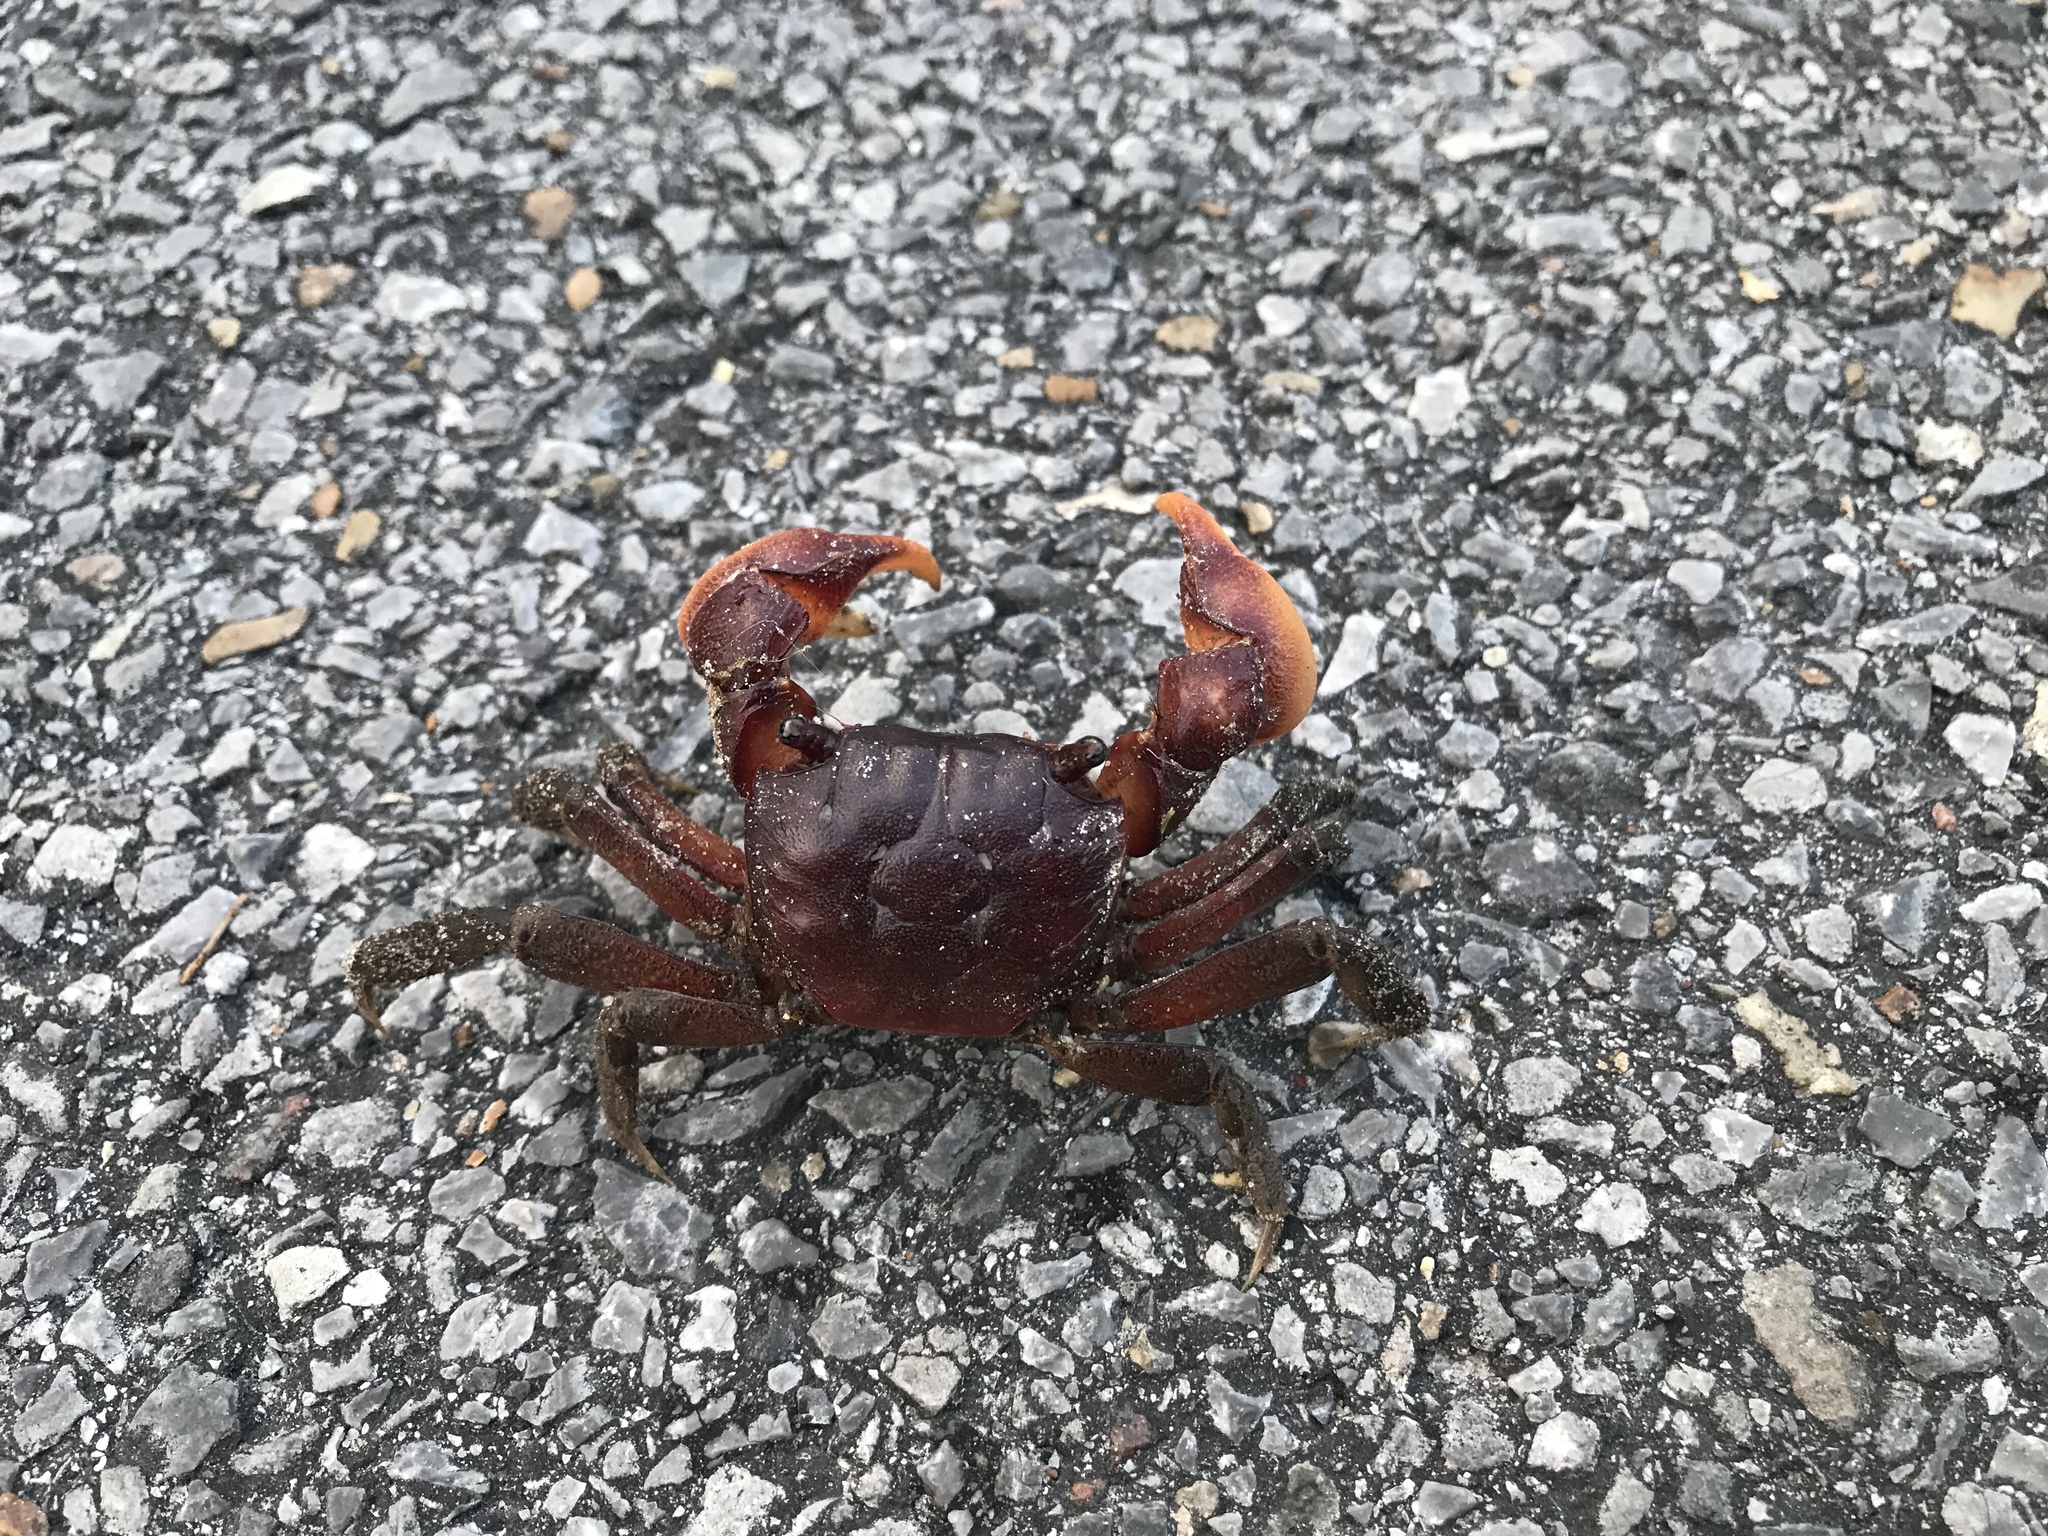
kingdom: Animalia
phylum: Arthropoda
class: Malacostraca
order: Decapoda
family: Sesarmidae
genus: Sesarma
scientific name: Sesarma reticulatum
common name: Heavy marsh crab
